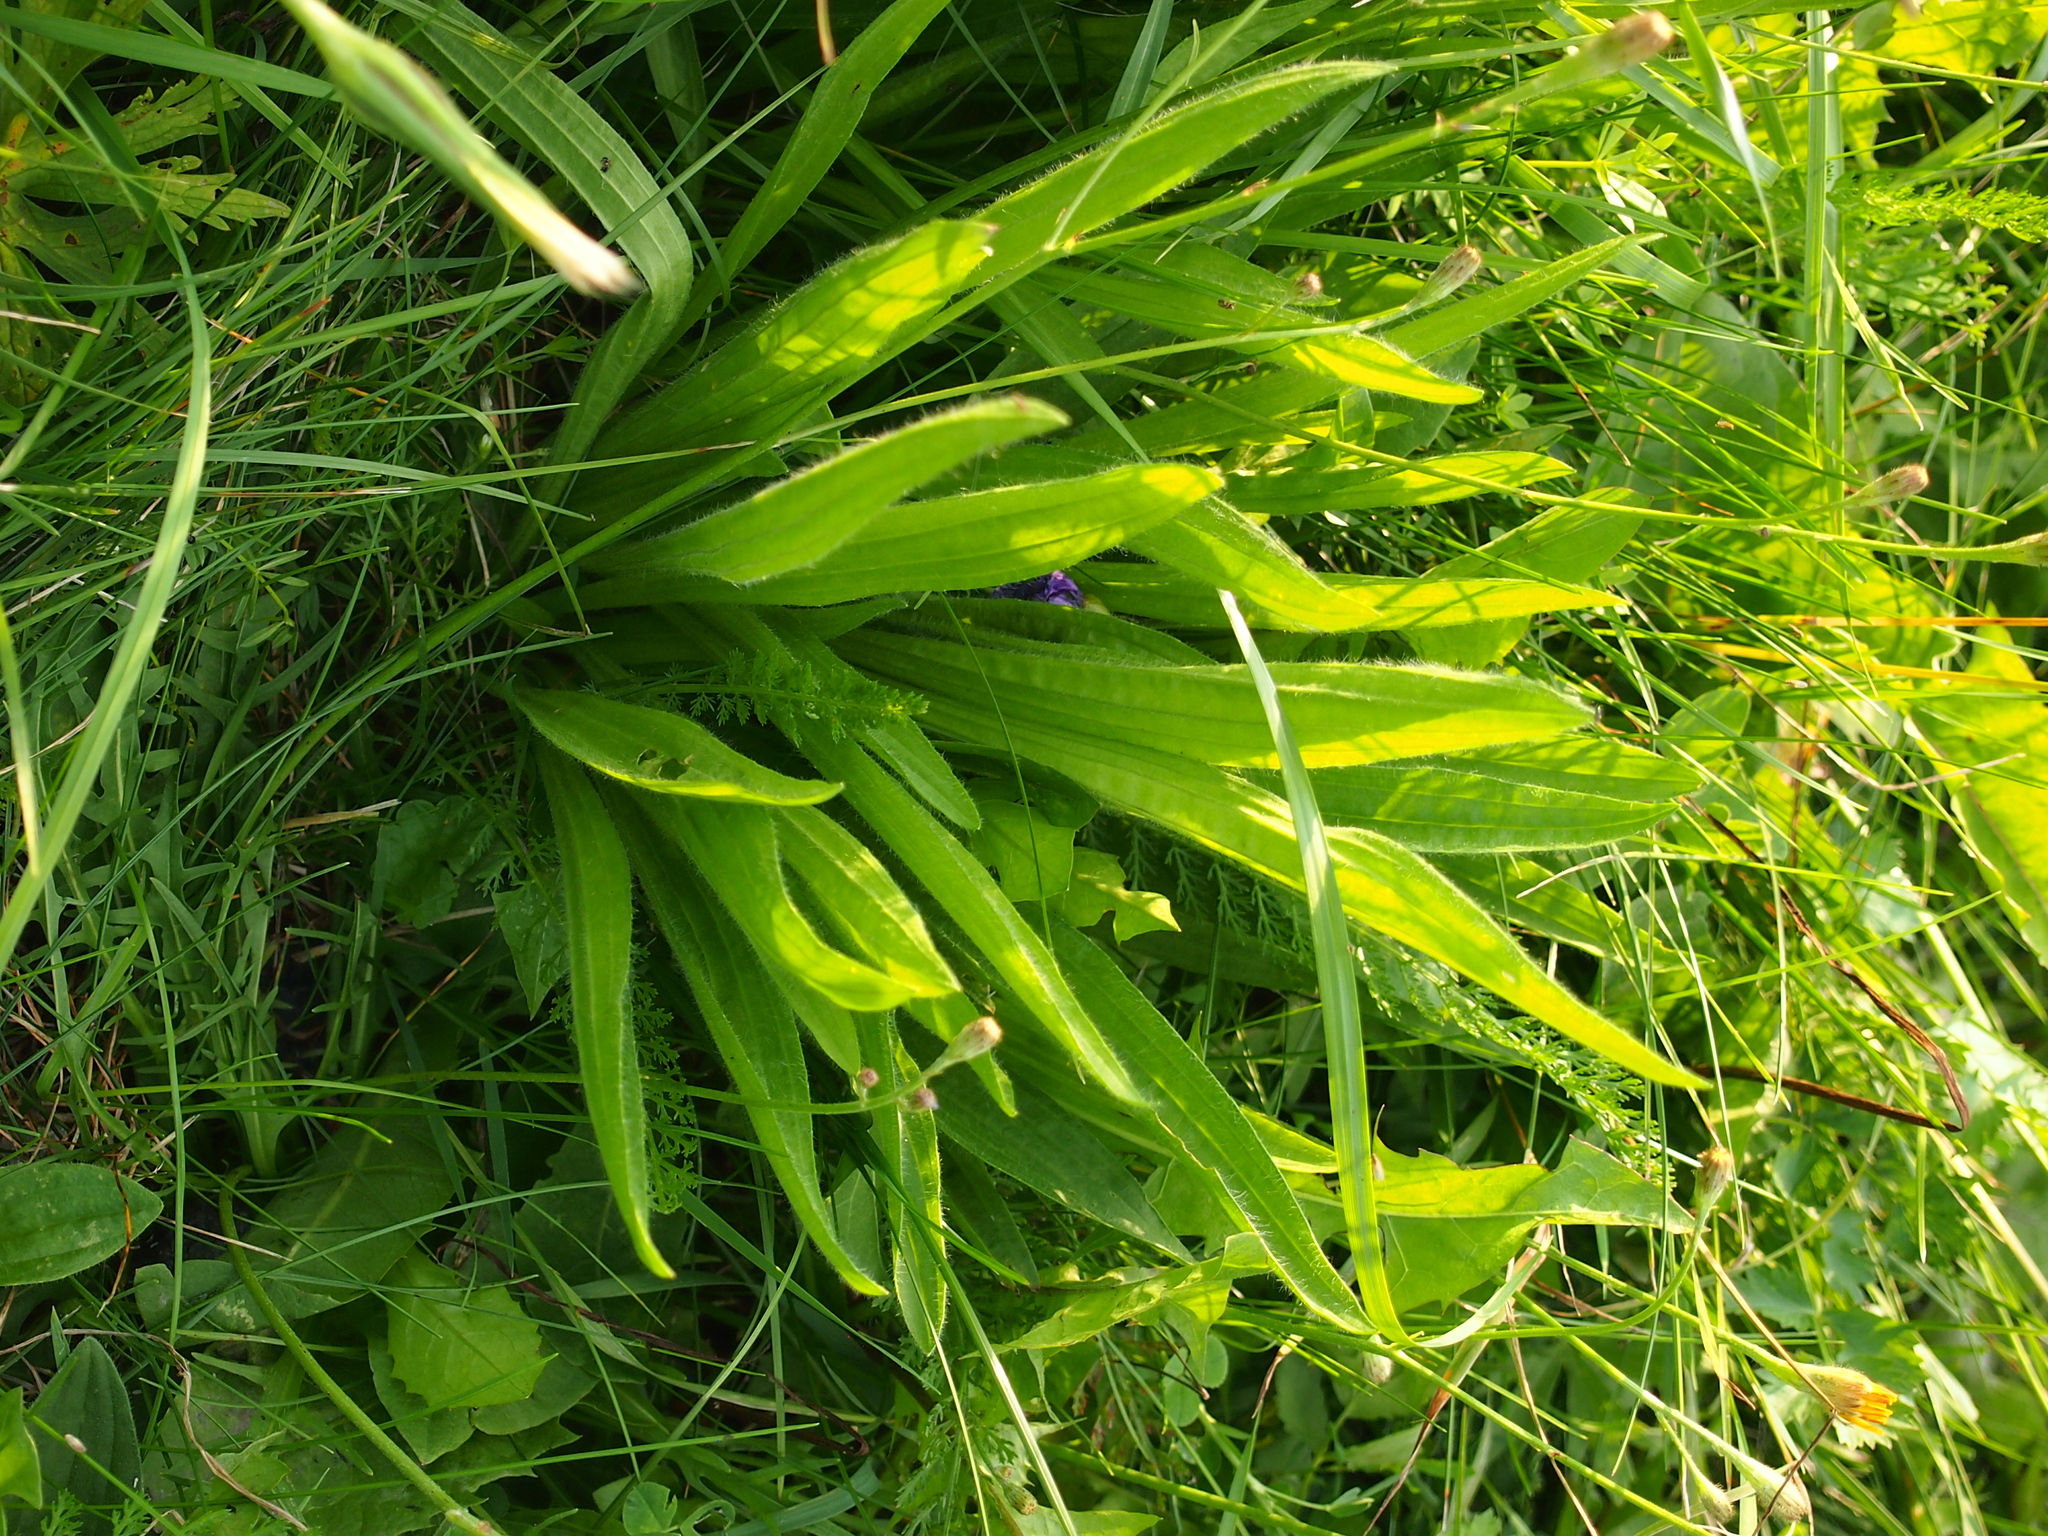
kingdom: Plantae
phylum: Tracheophyta
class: Magnoliopsida
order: Lamiales
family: Plantaginaceae
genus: Plantago
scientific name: Plantago lanceolata
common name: Ribwort plantain
